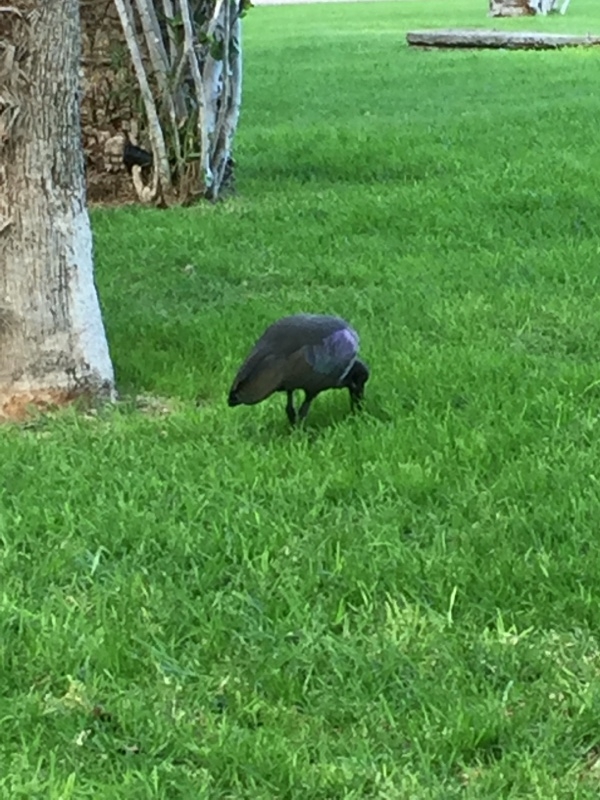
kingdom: Animalia
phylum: Chordata
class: Aves
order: Pelecaniformes
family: Threskiornithidae
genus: Bostrychia
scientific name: Bostrychia hagedash
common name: Hadada ibis
